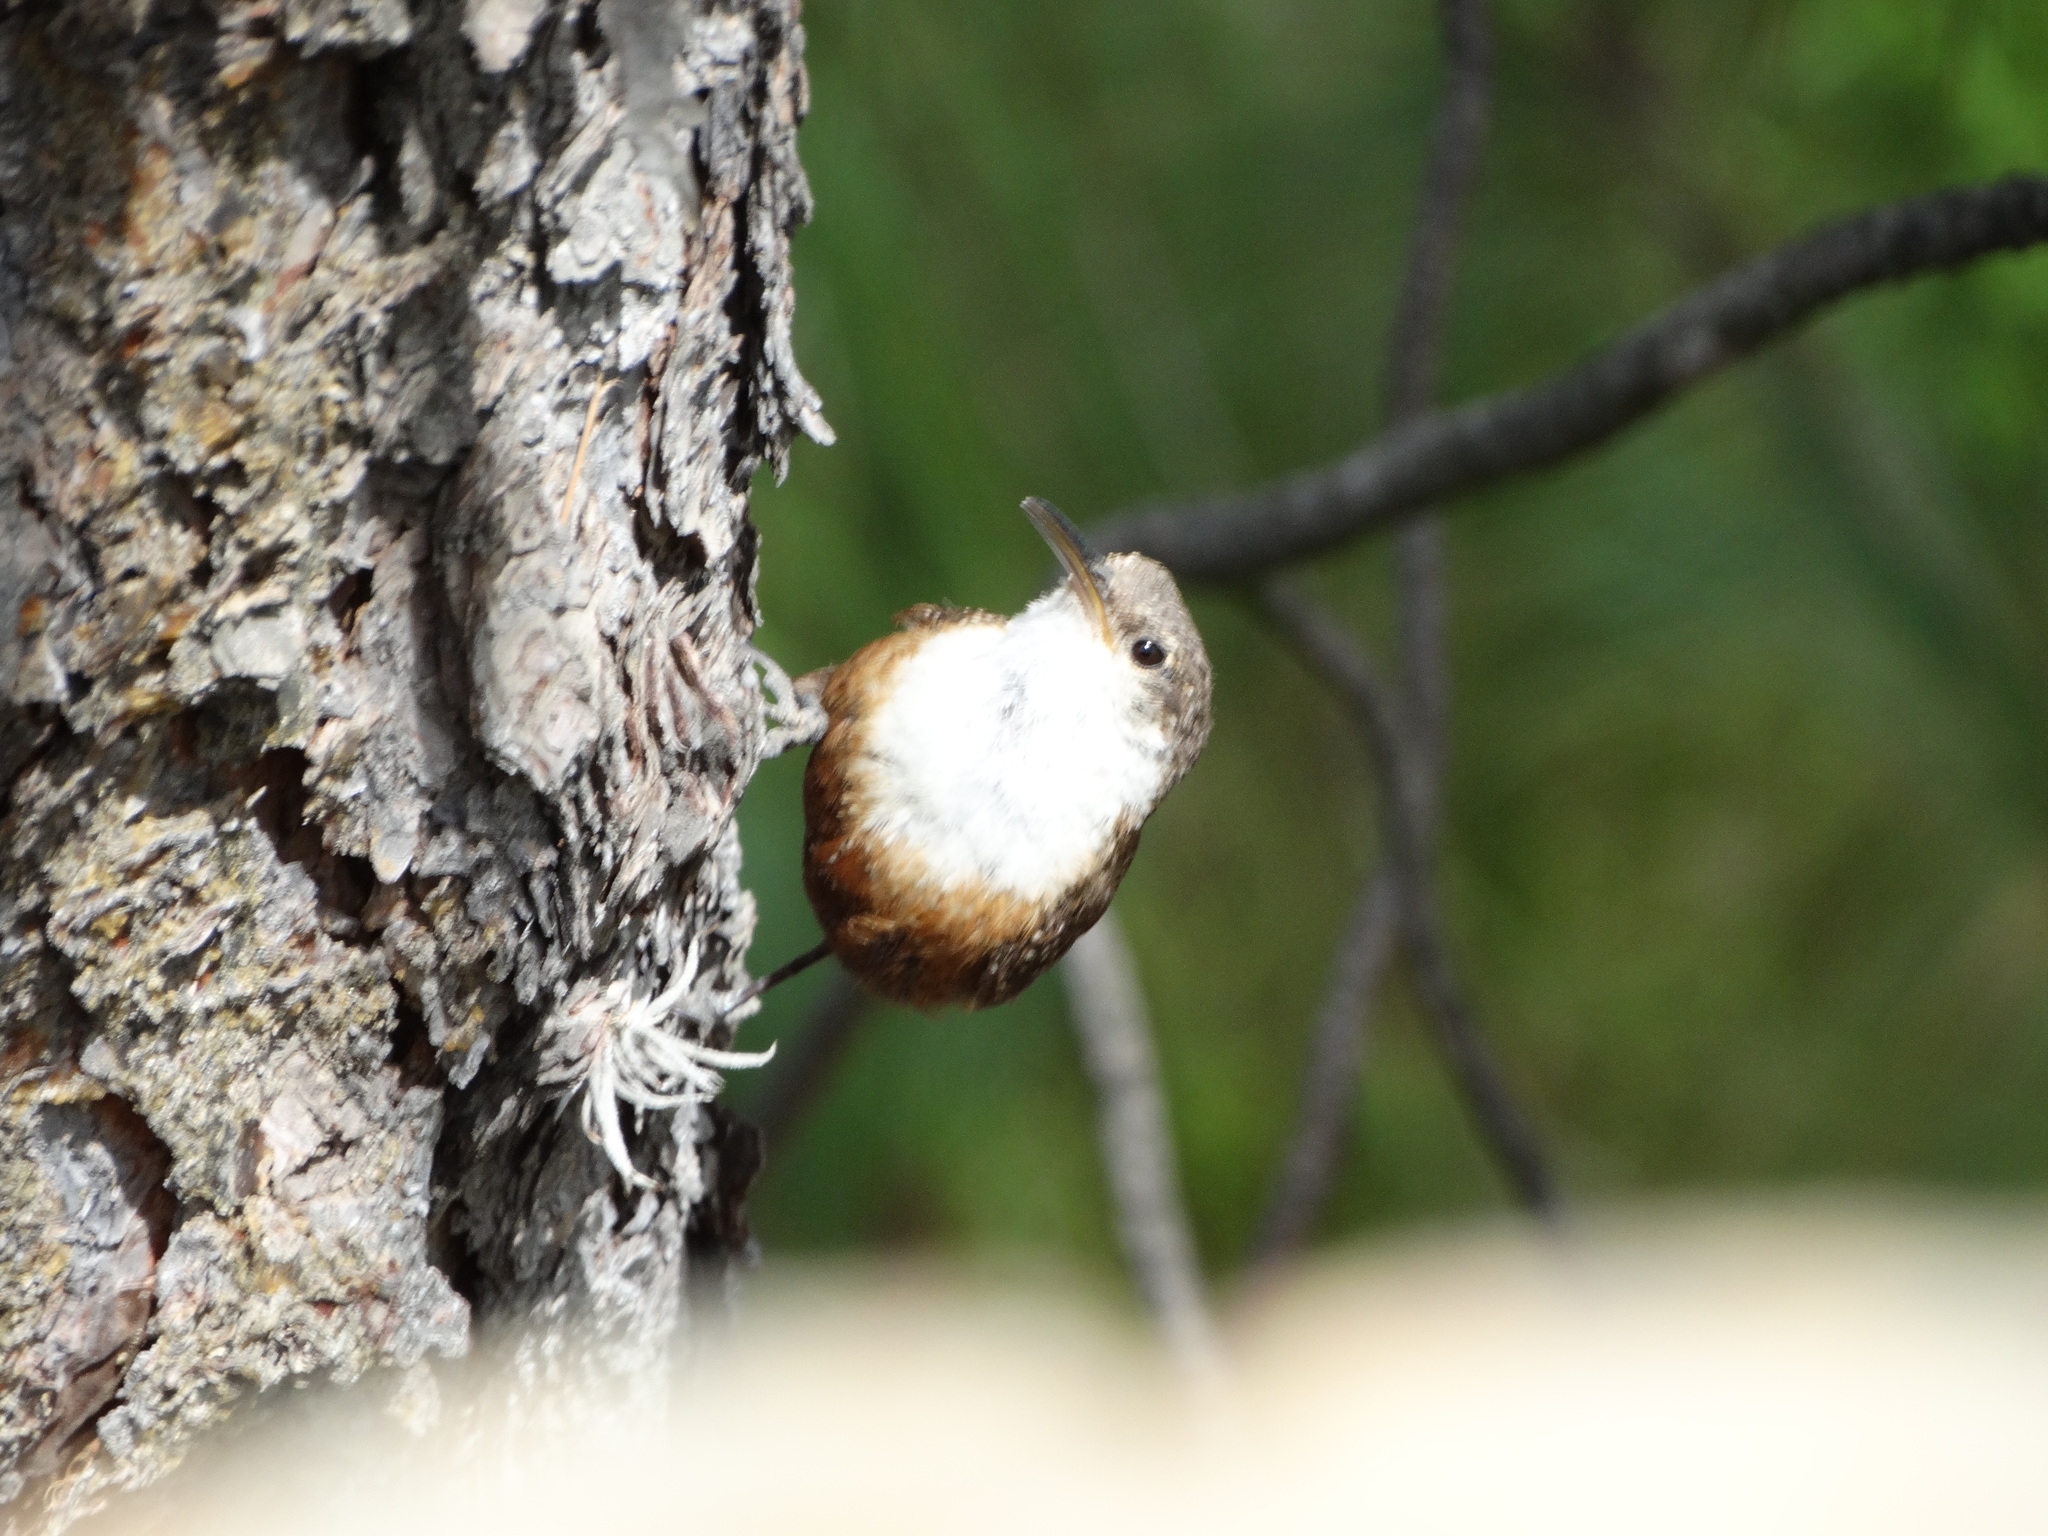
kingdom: Animalia
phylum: Chordata
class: Aves
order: Passeriformes
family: Troglodytidae
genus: Catherpes
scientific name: Catherpes mexicanus
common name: Canyon wren
